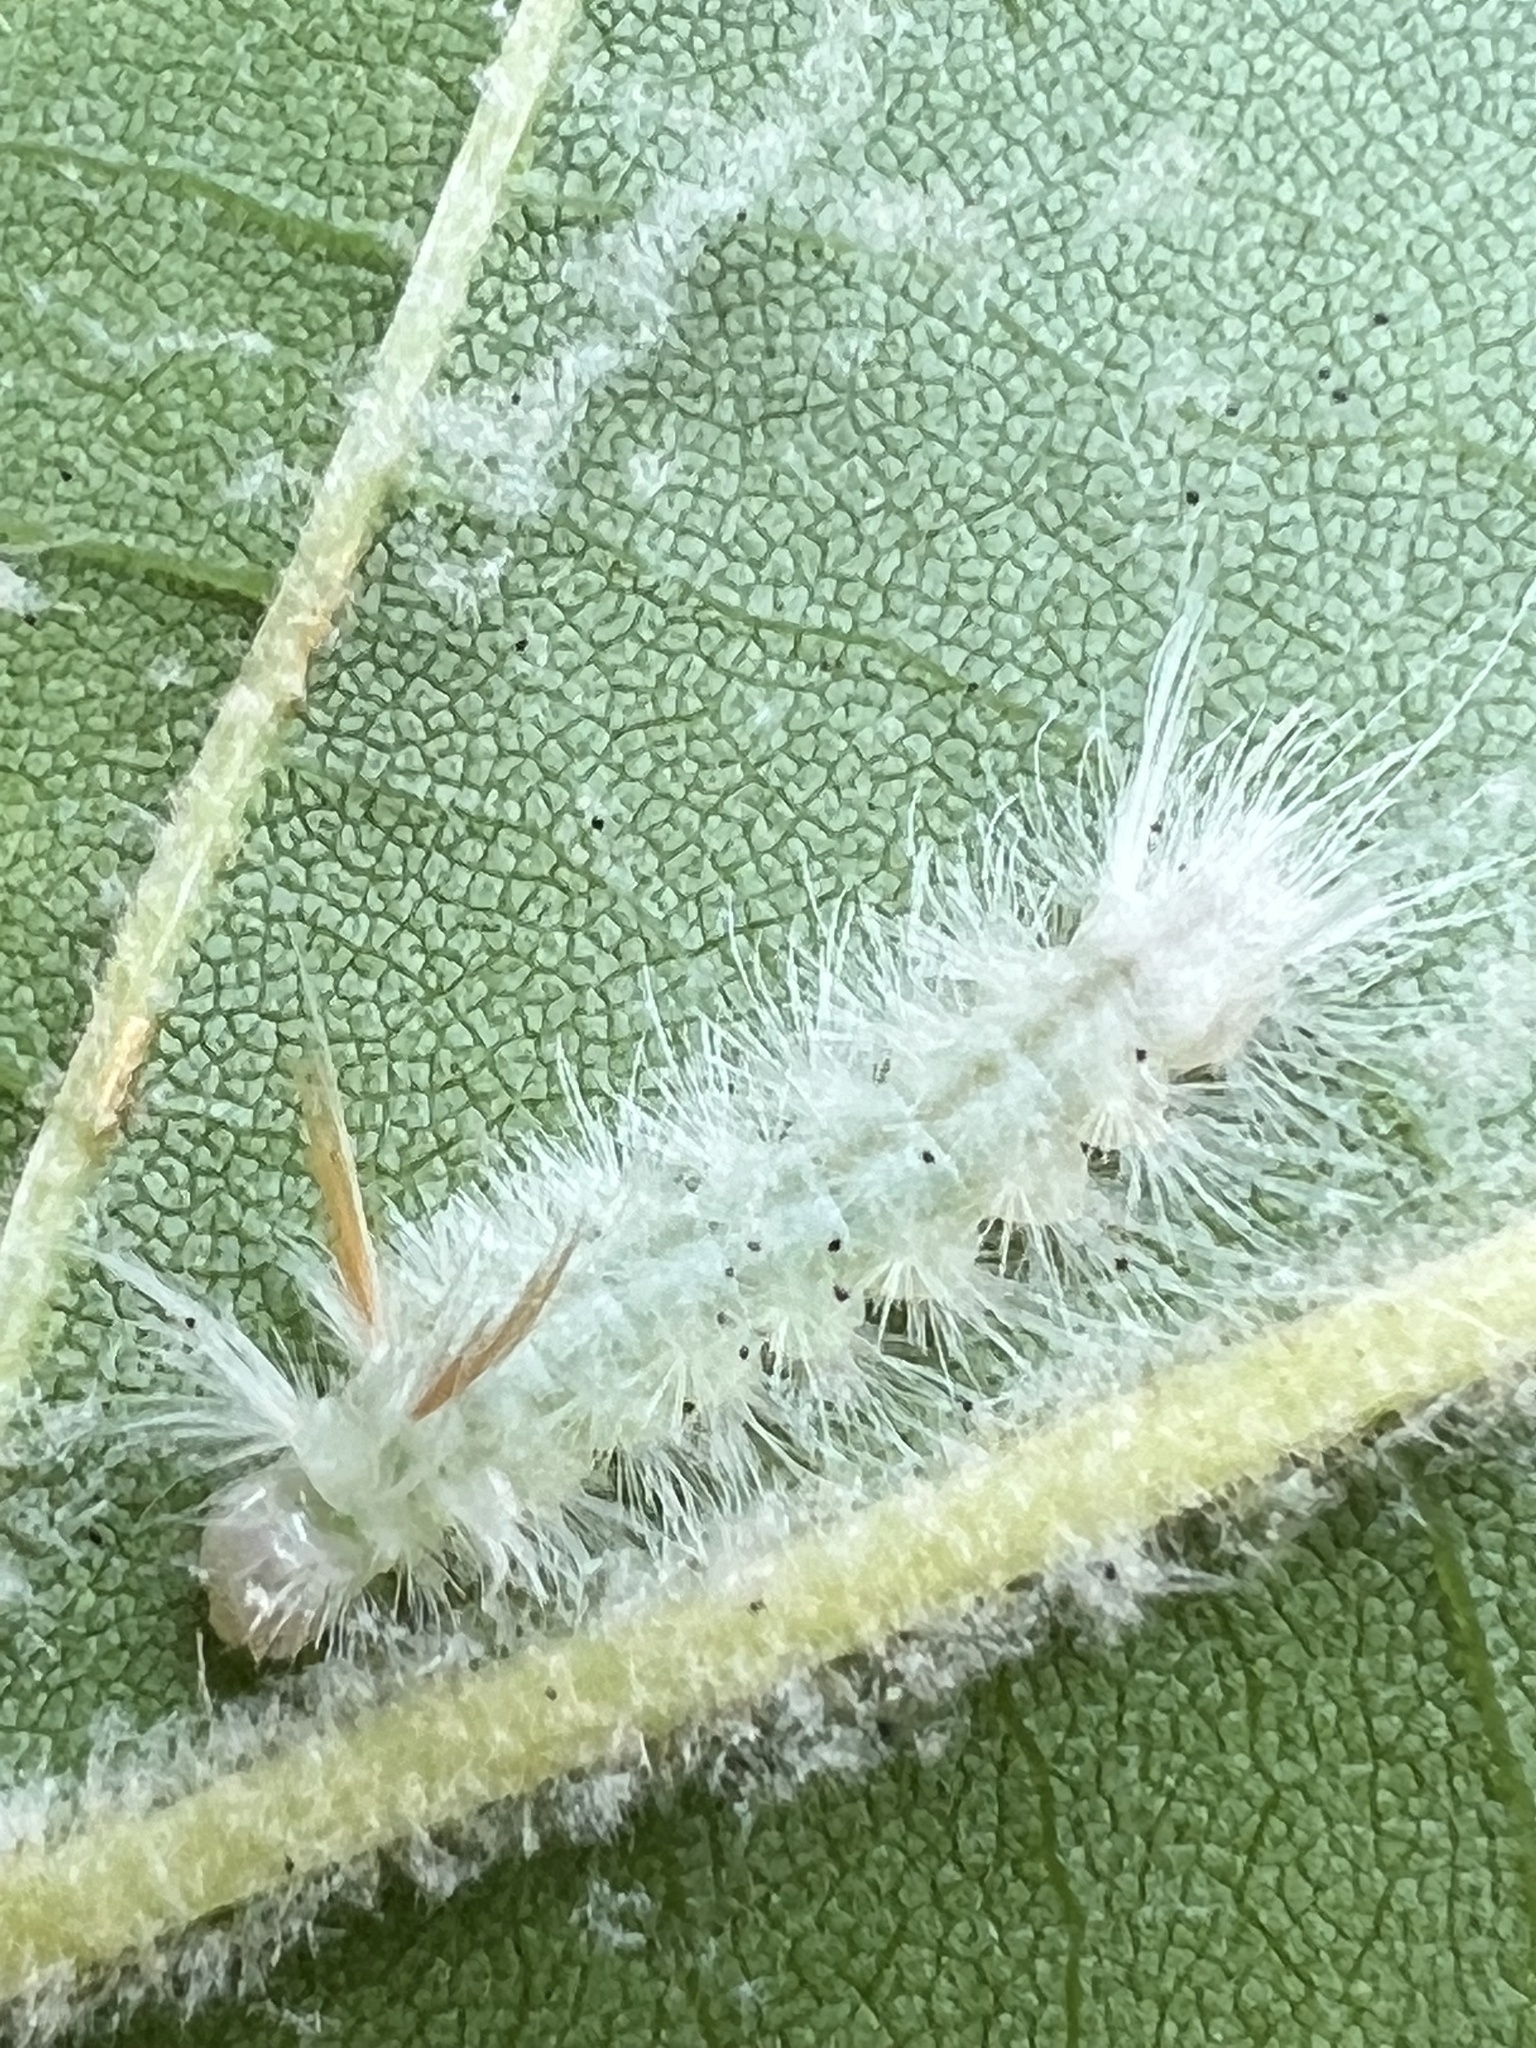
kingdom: Animalia
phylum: Arthropoda
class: Insecta
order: Lepidoptera
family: Erebidae
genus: Halysidota
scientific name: Halysidota harrisii
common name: Sycamore tussock moth
